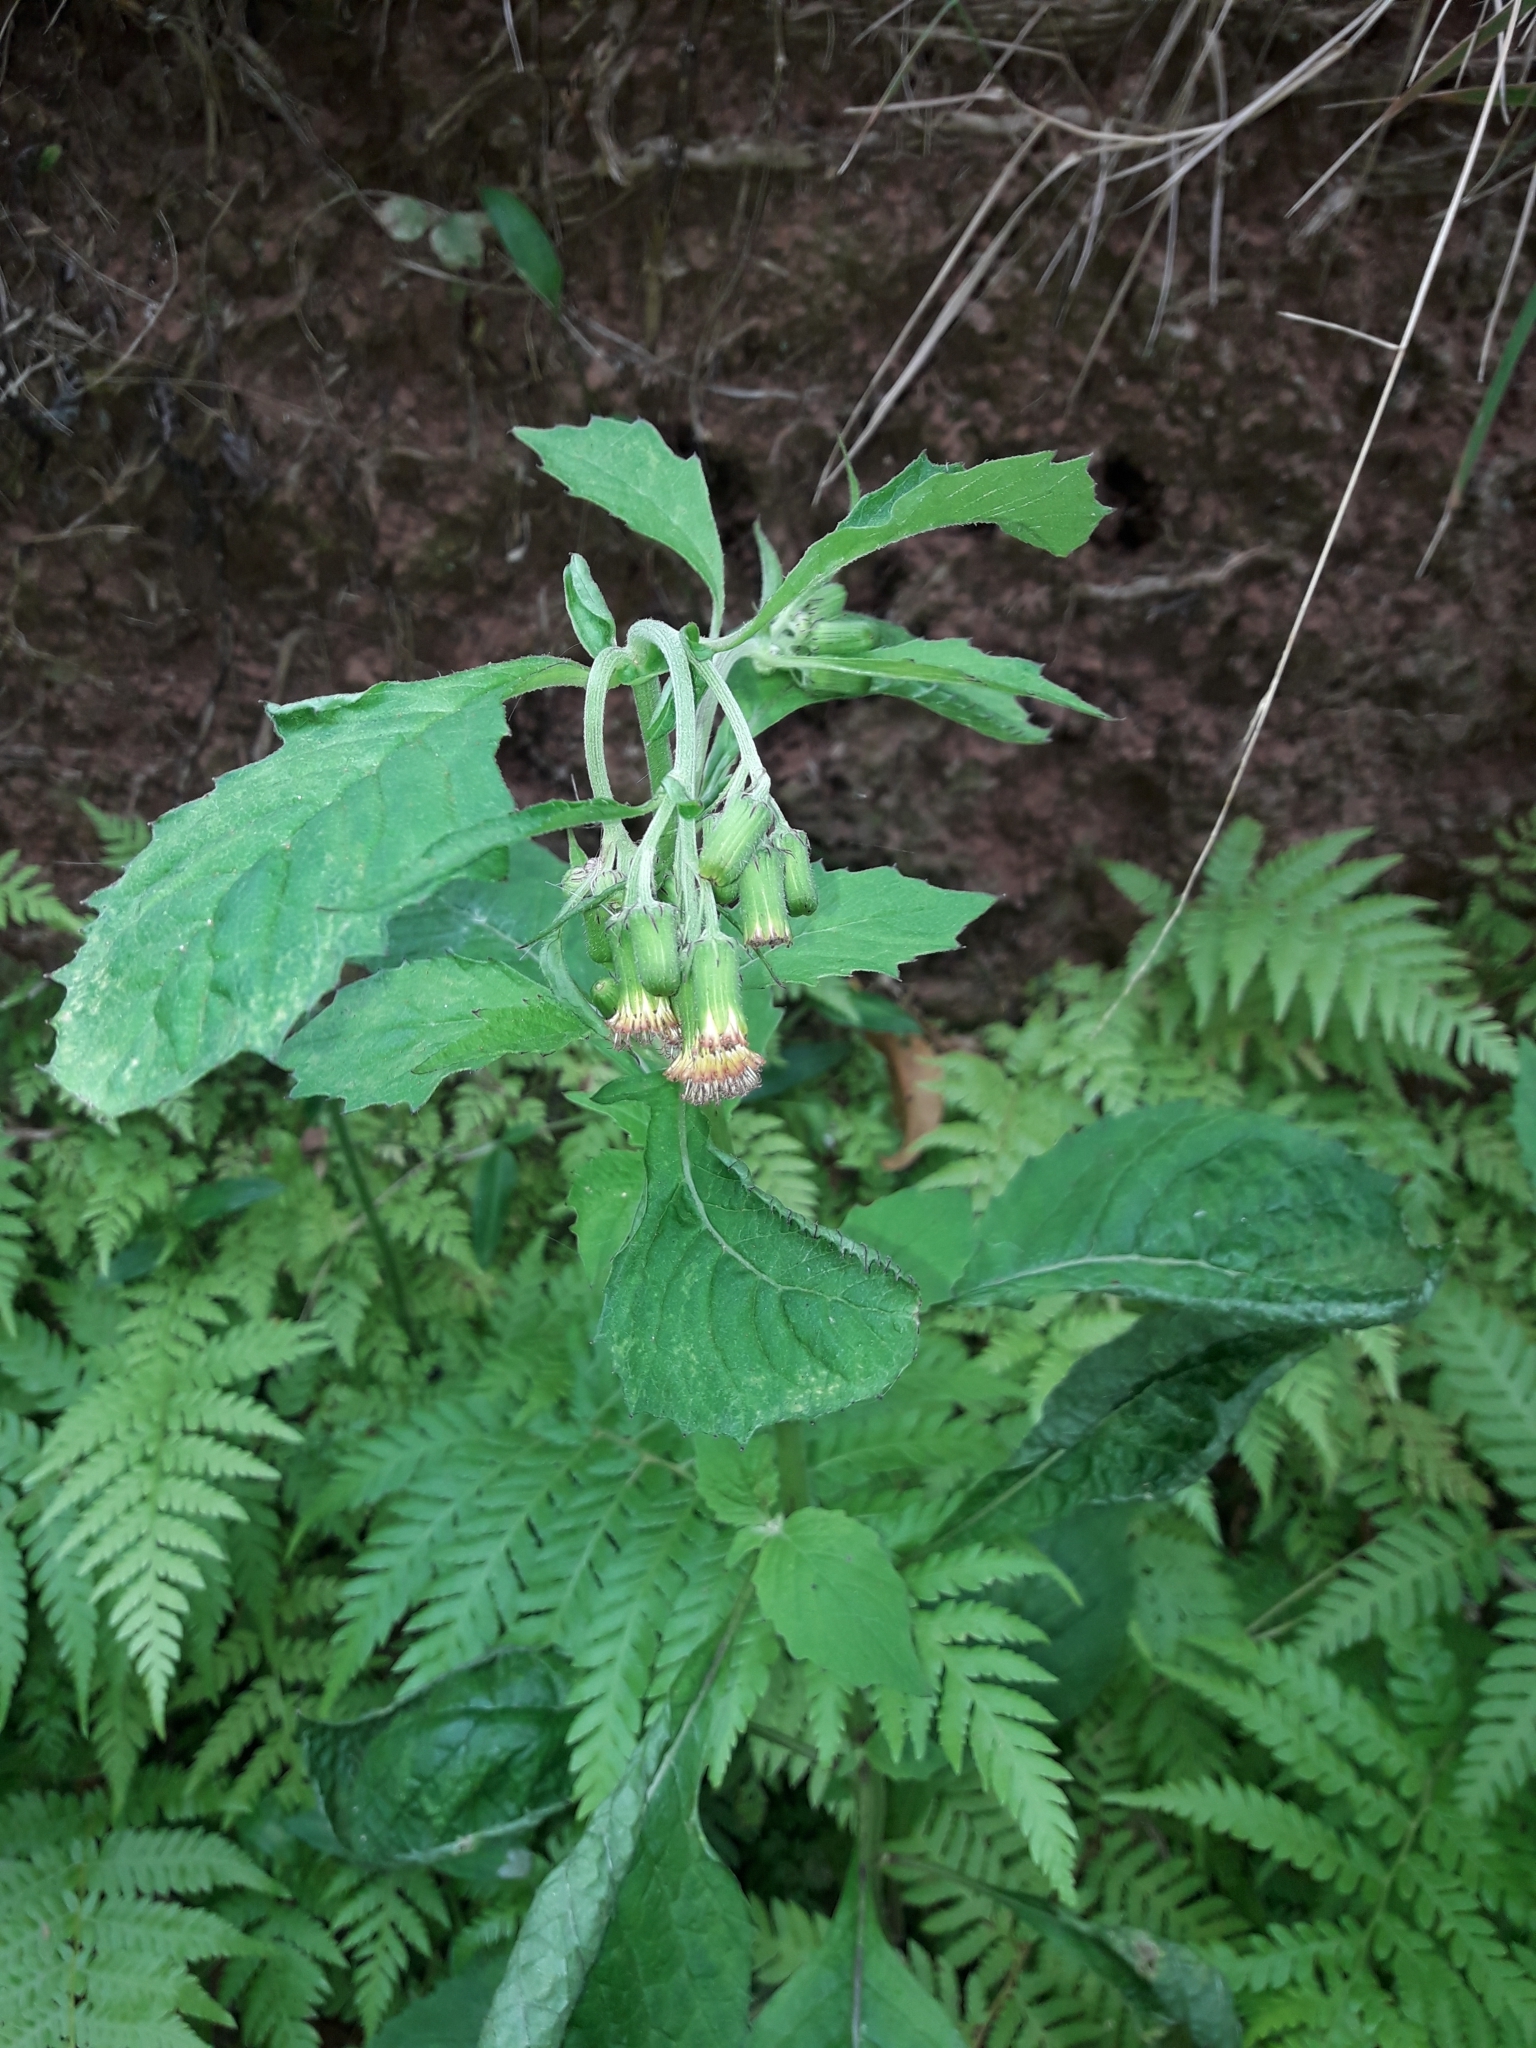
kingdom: Plantae
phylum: Tracheophyta
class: Magnoliopsida
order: Asterales
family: Asteraceae
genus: Crassocephalum
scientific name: Crassocephalum crepidioides
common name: Redflower ragleaf
